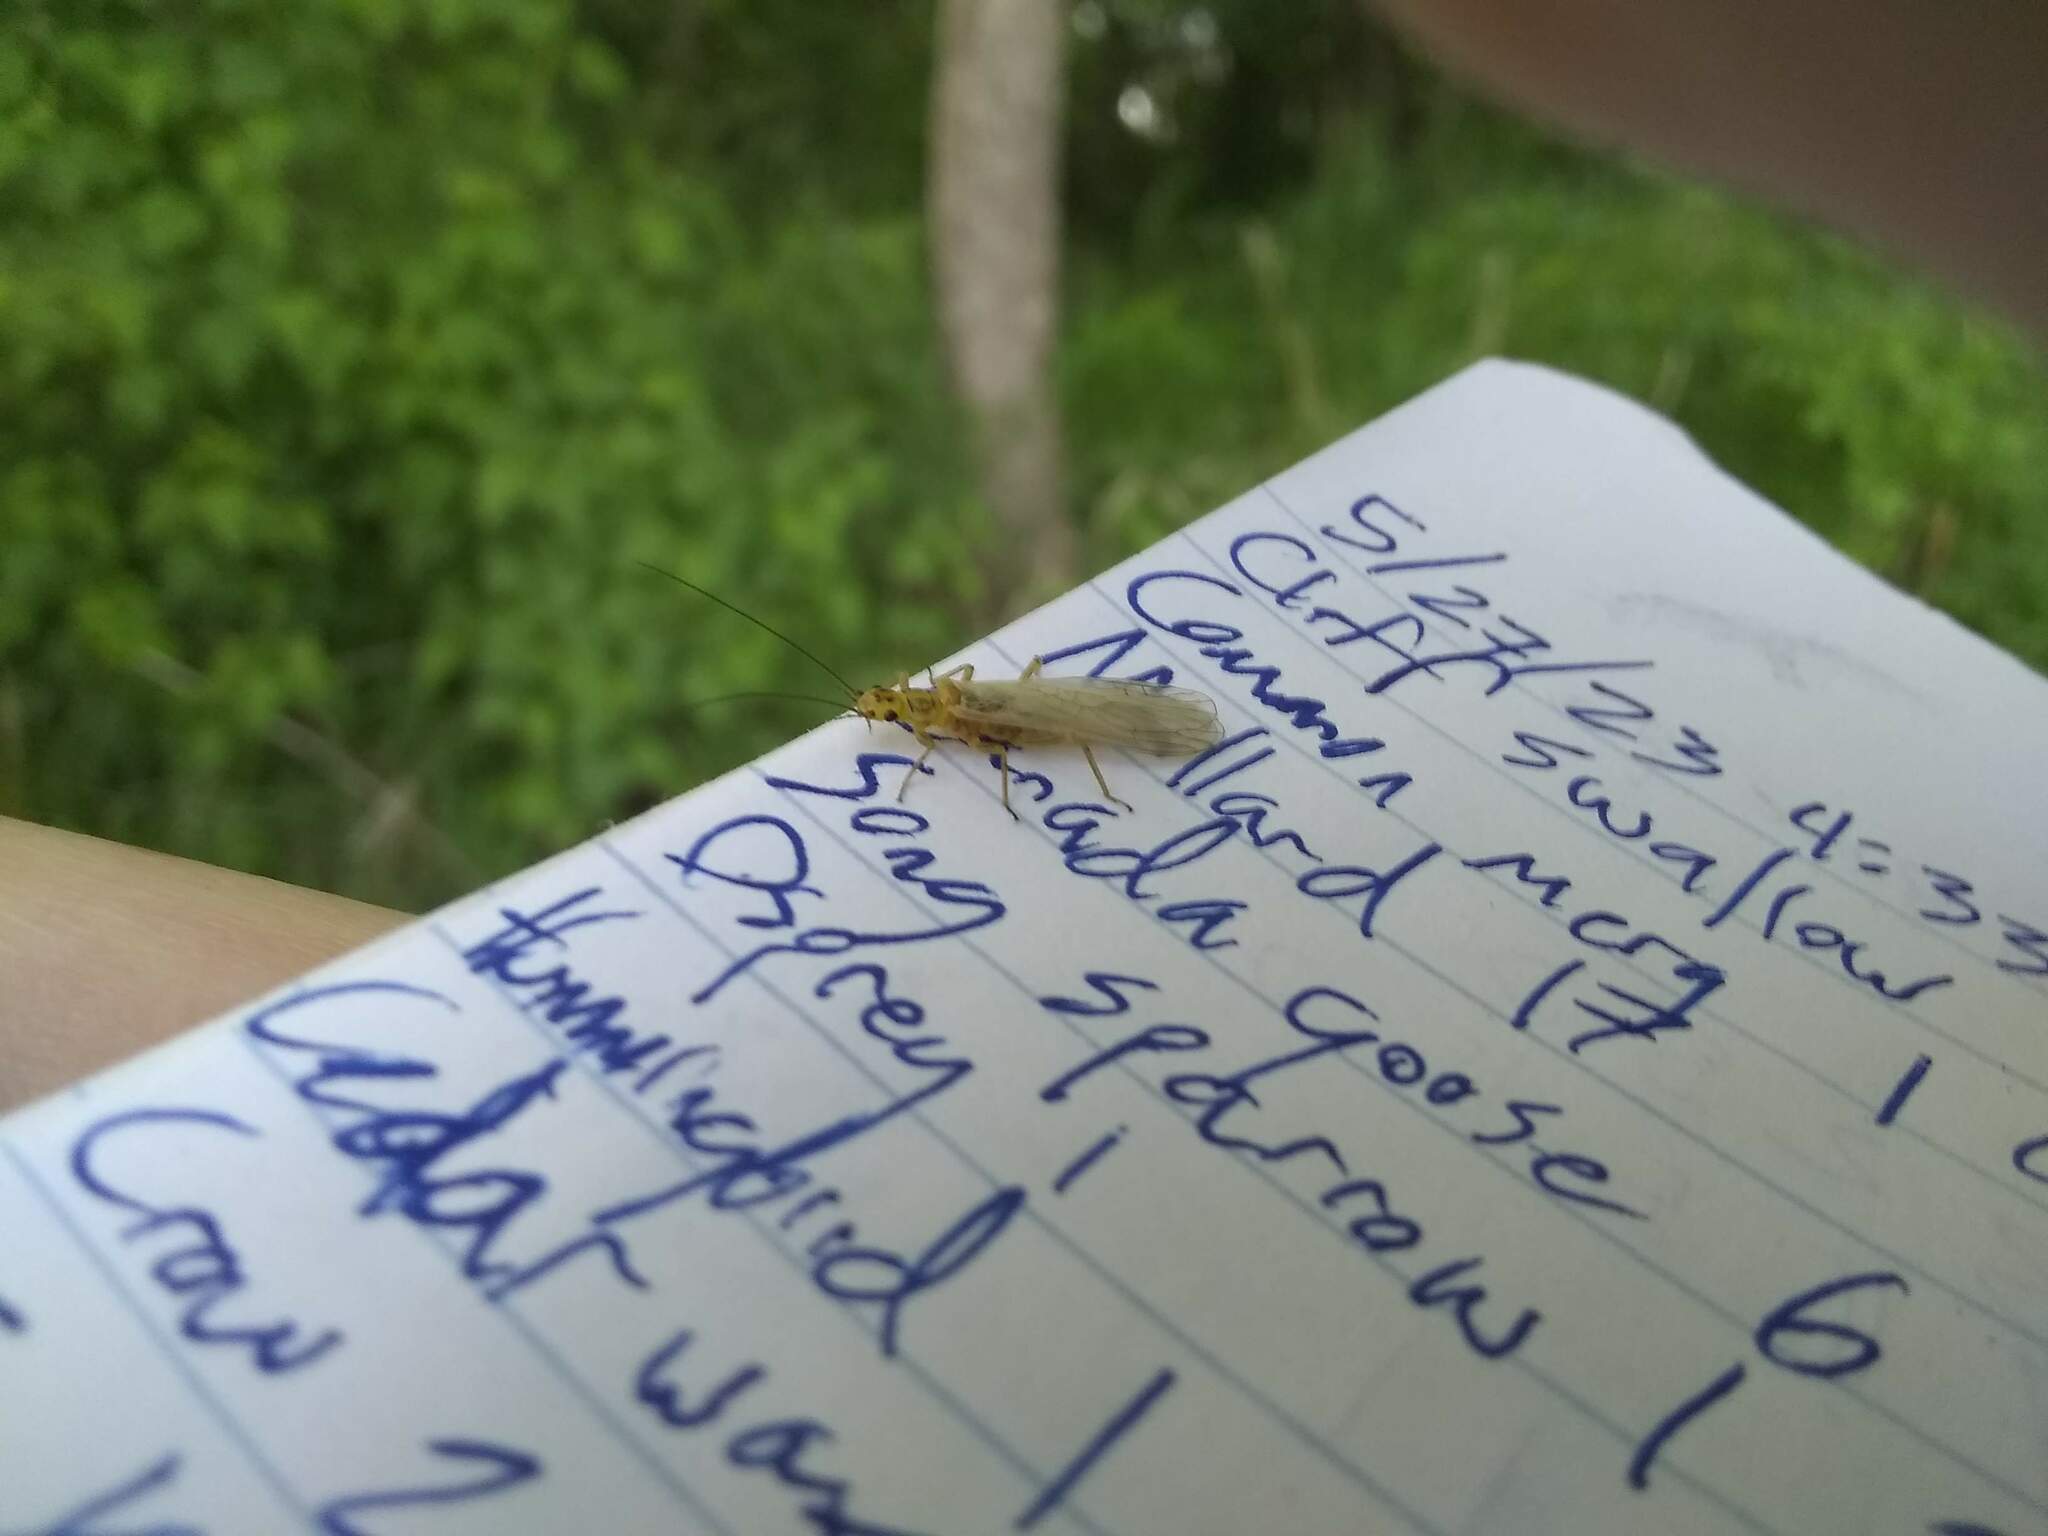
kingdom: Animalia
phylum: Arthropoda
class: Insecta
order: Plecoptera
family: Perlodidae
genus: Isoperla
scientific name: Isoperla
